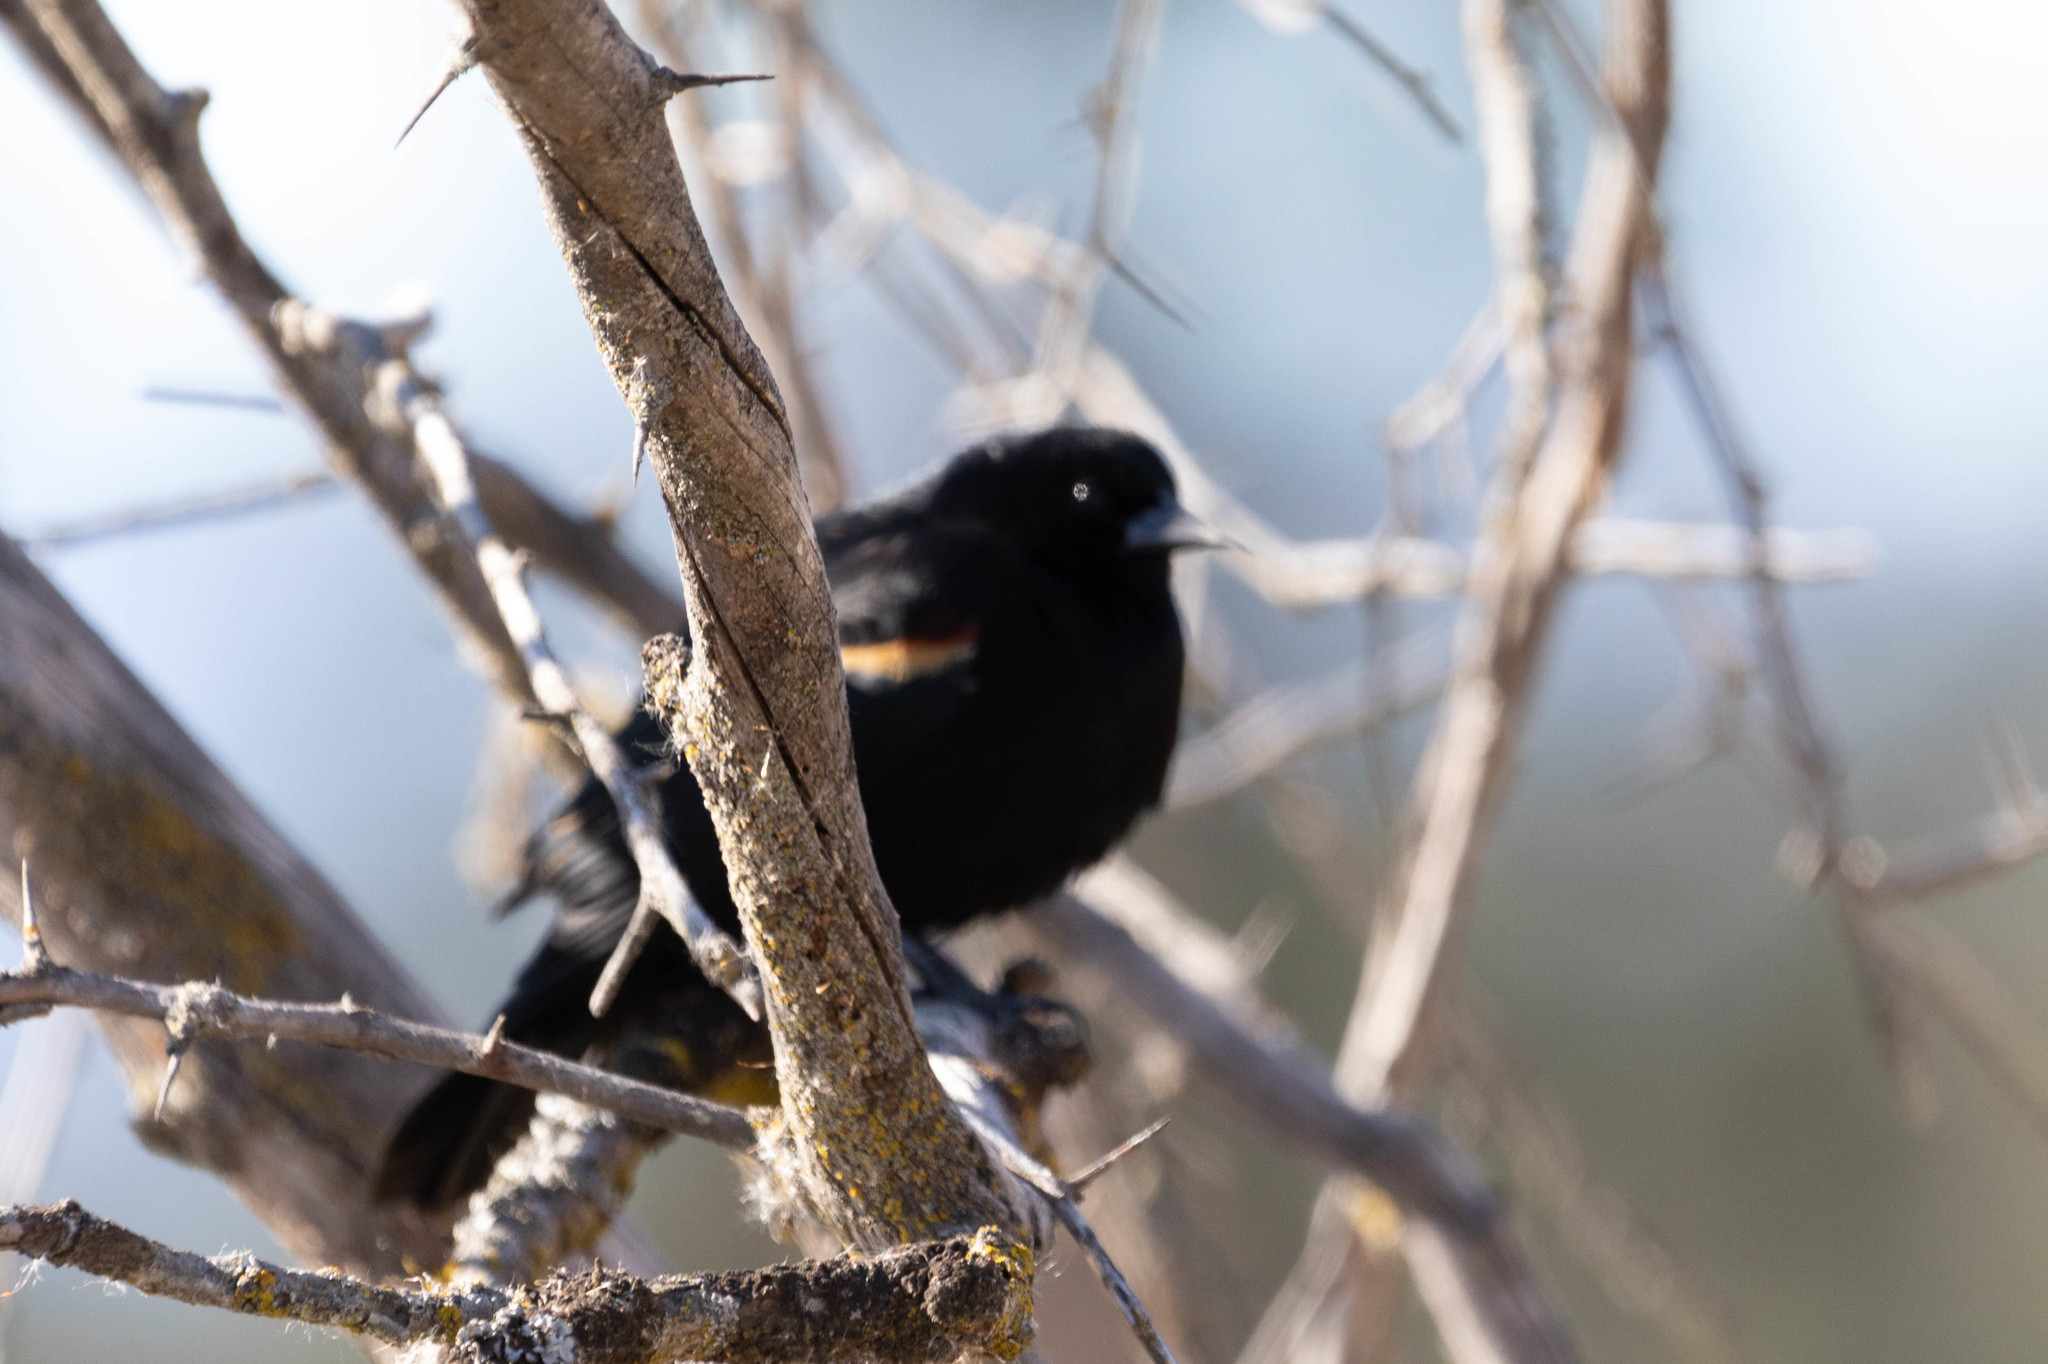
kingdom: Animalia
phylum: Chordata
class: Aves
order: Passeriformes
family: Icteridae
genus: Agelaius
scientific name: Agelaius phoeniceus
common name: Red-winged blackbird
